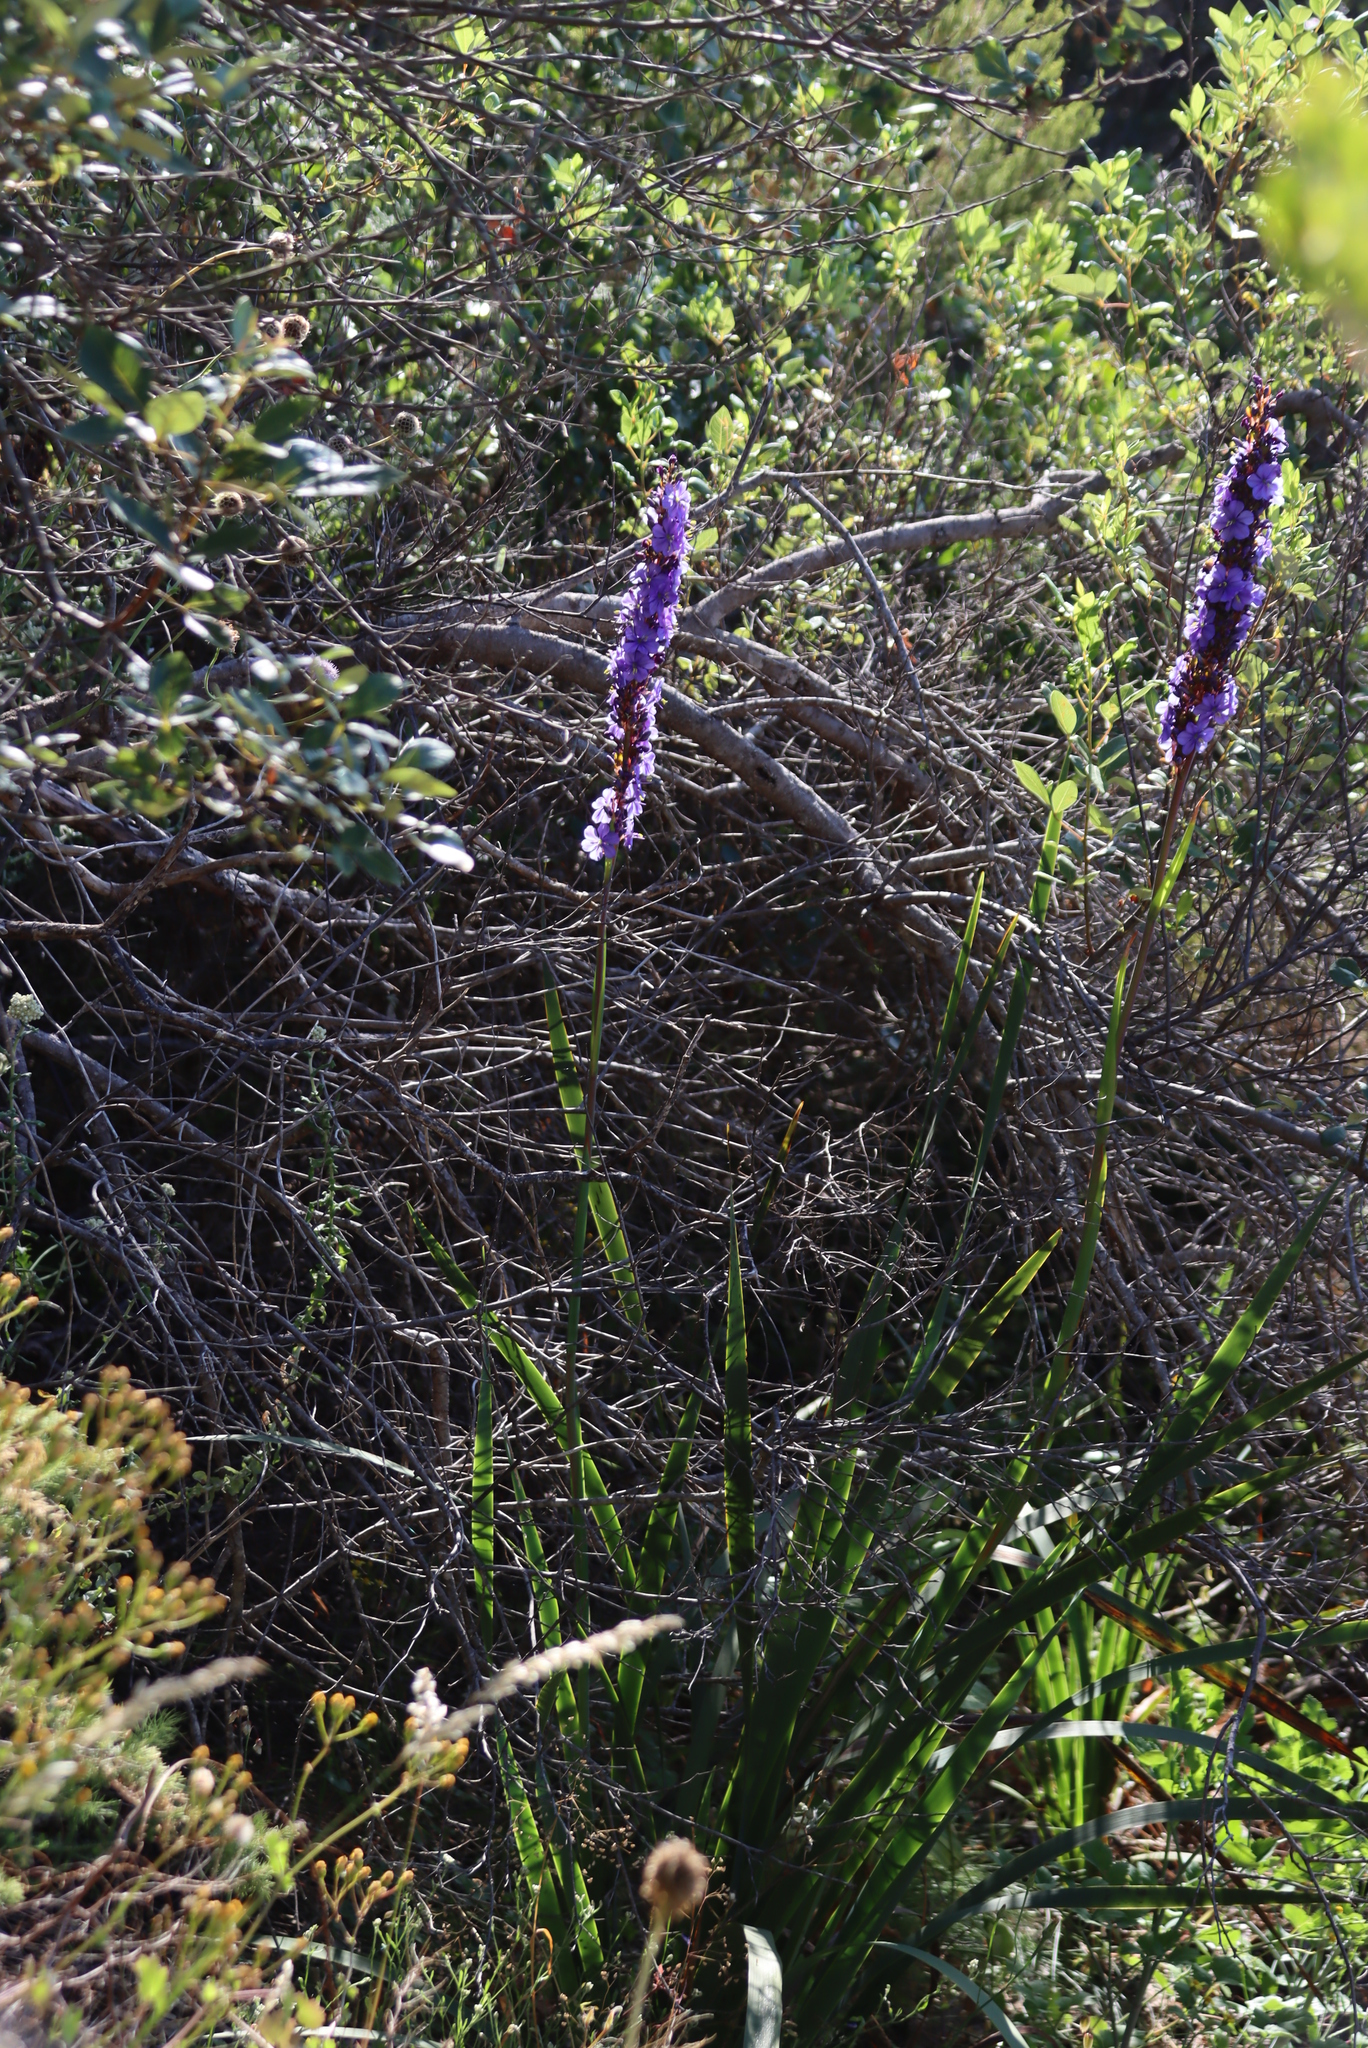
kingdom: Plantae
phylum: Tracheophyta
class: Liliopsida
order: Asparagales
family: Iridaceae
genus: Aristea
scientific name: Aristea capitata
